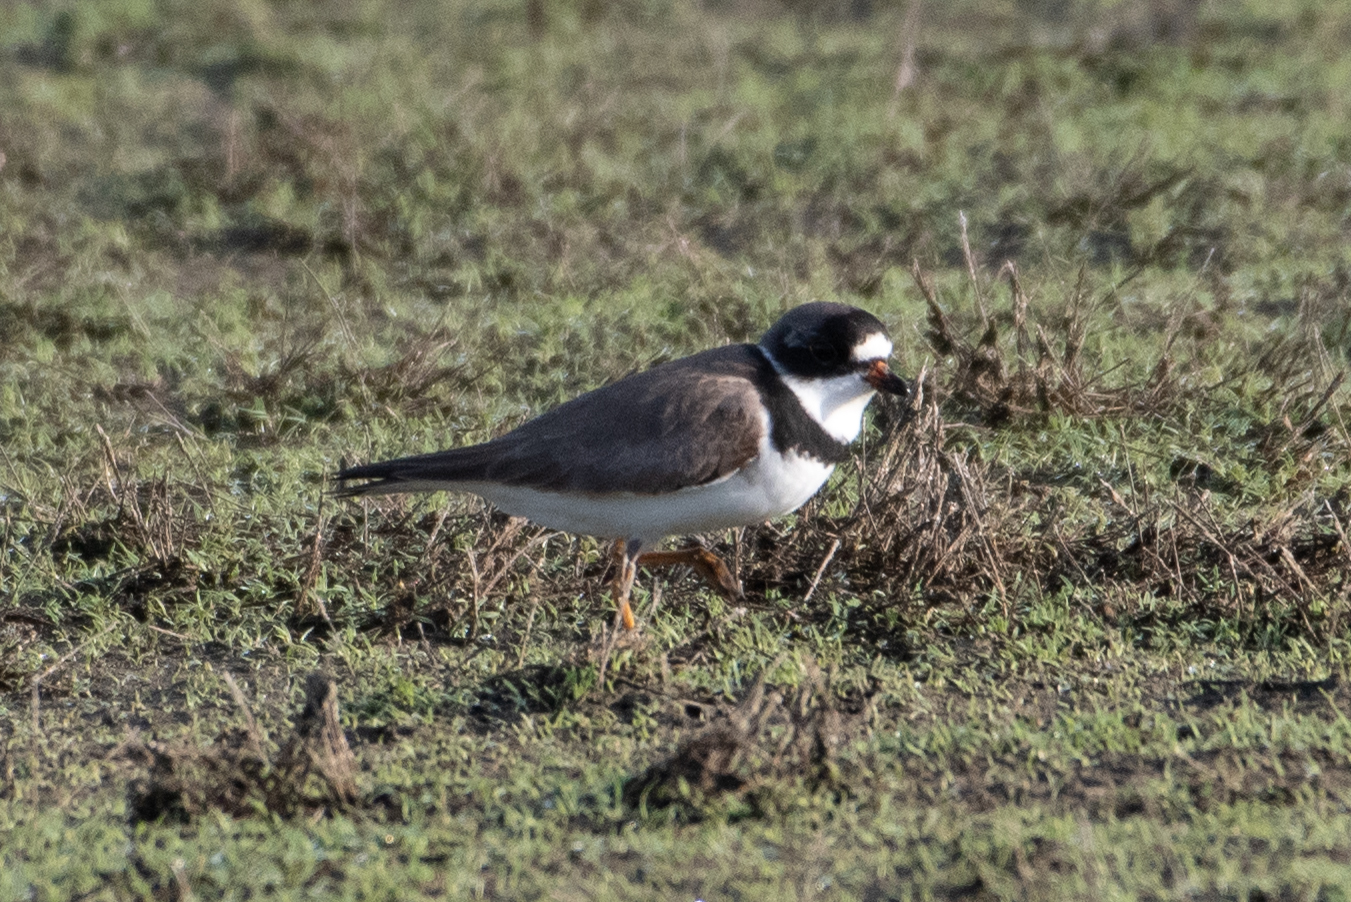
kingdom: Animalia
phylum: Chordata
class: Aves
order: Charadriiformes
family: Charadriidae
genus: Charadrius
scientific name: Charadrius semipalmatus
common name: Semipalmated plover
